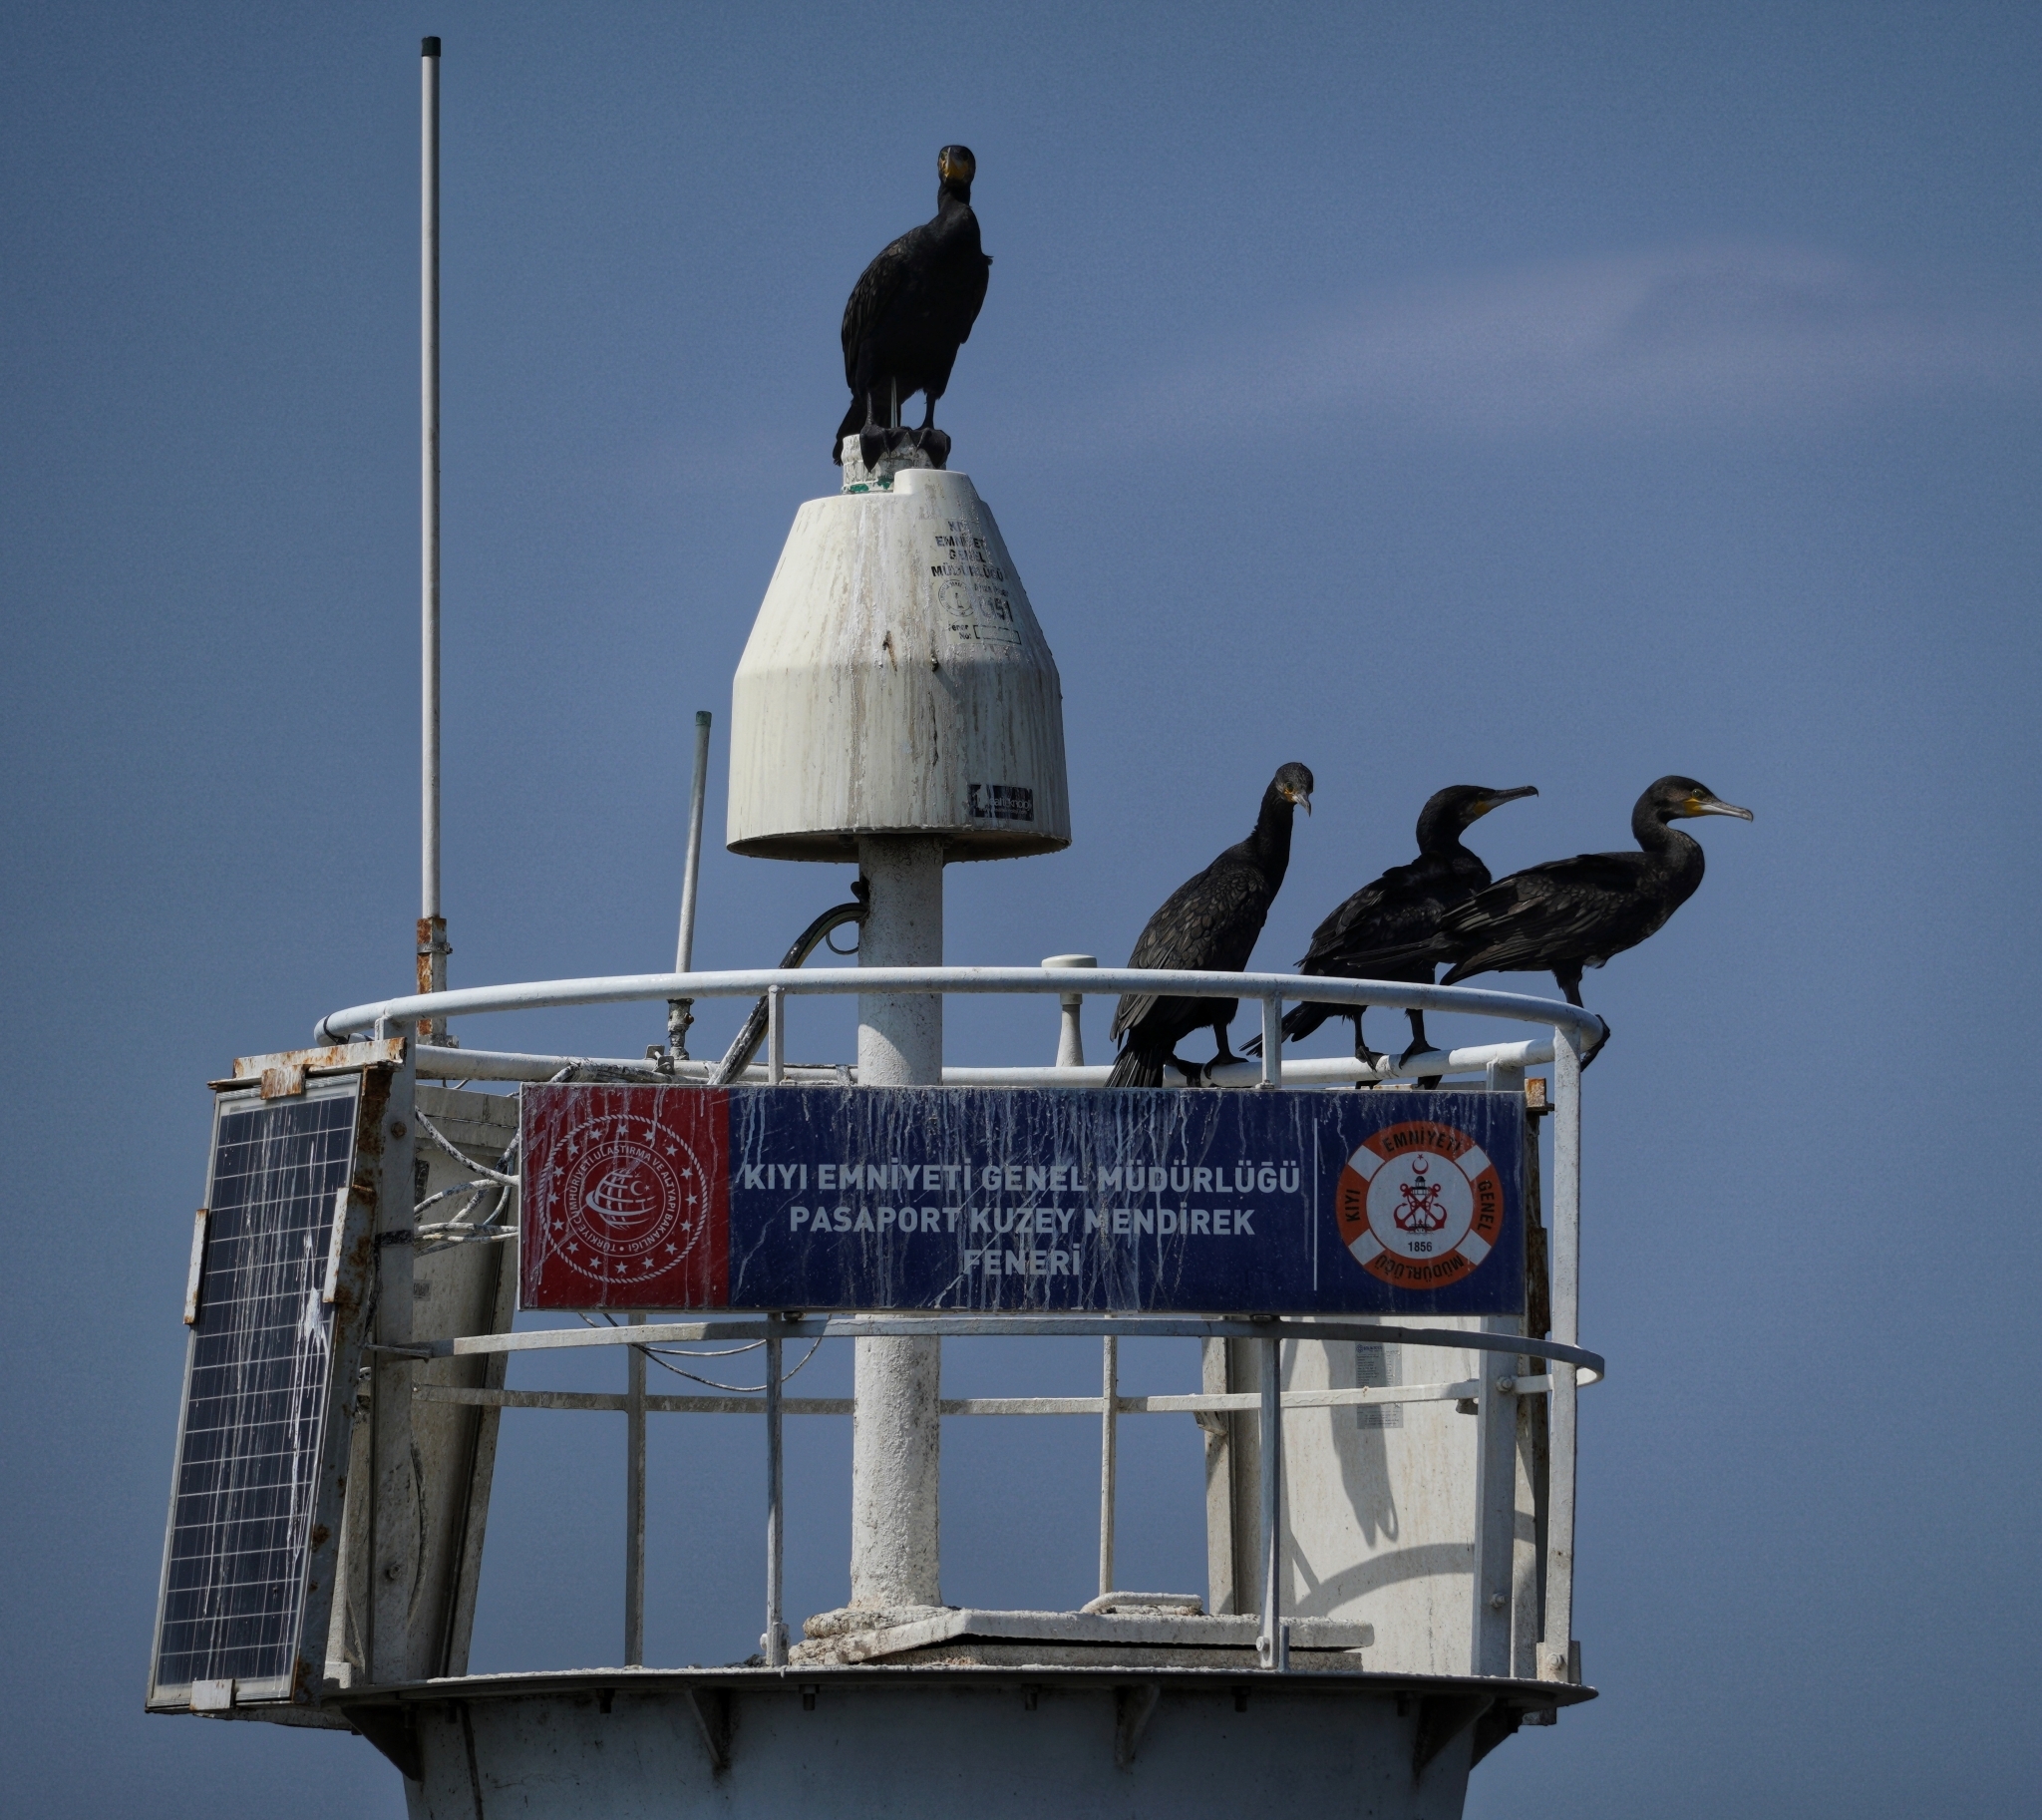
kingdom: Animalia
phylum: Chordata
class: Aves
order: Suliformes
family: Phalacrocoracidae
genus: Phalacrocorax
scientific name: Phalacrocorax carbo
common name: Great cormorant
